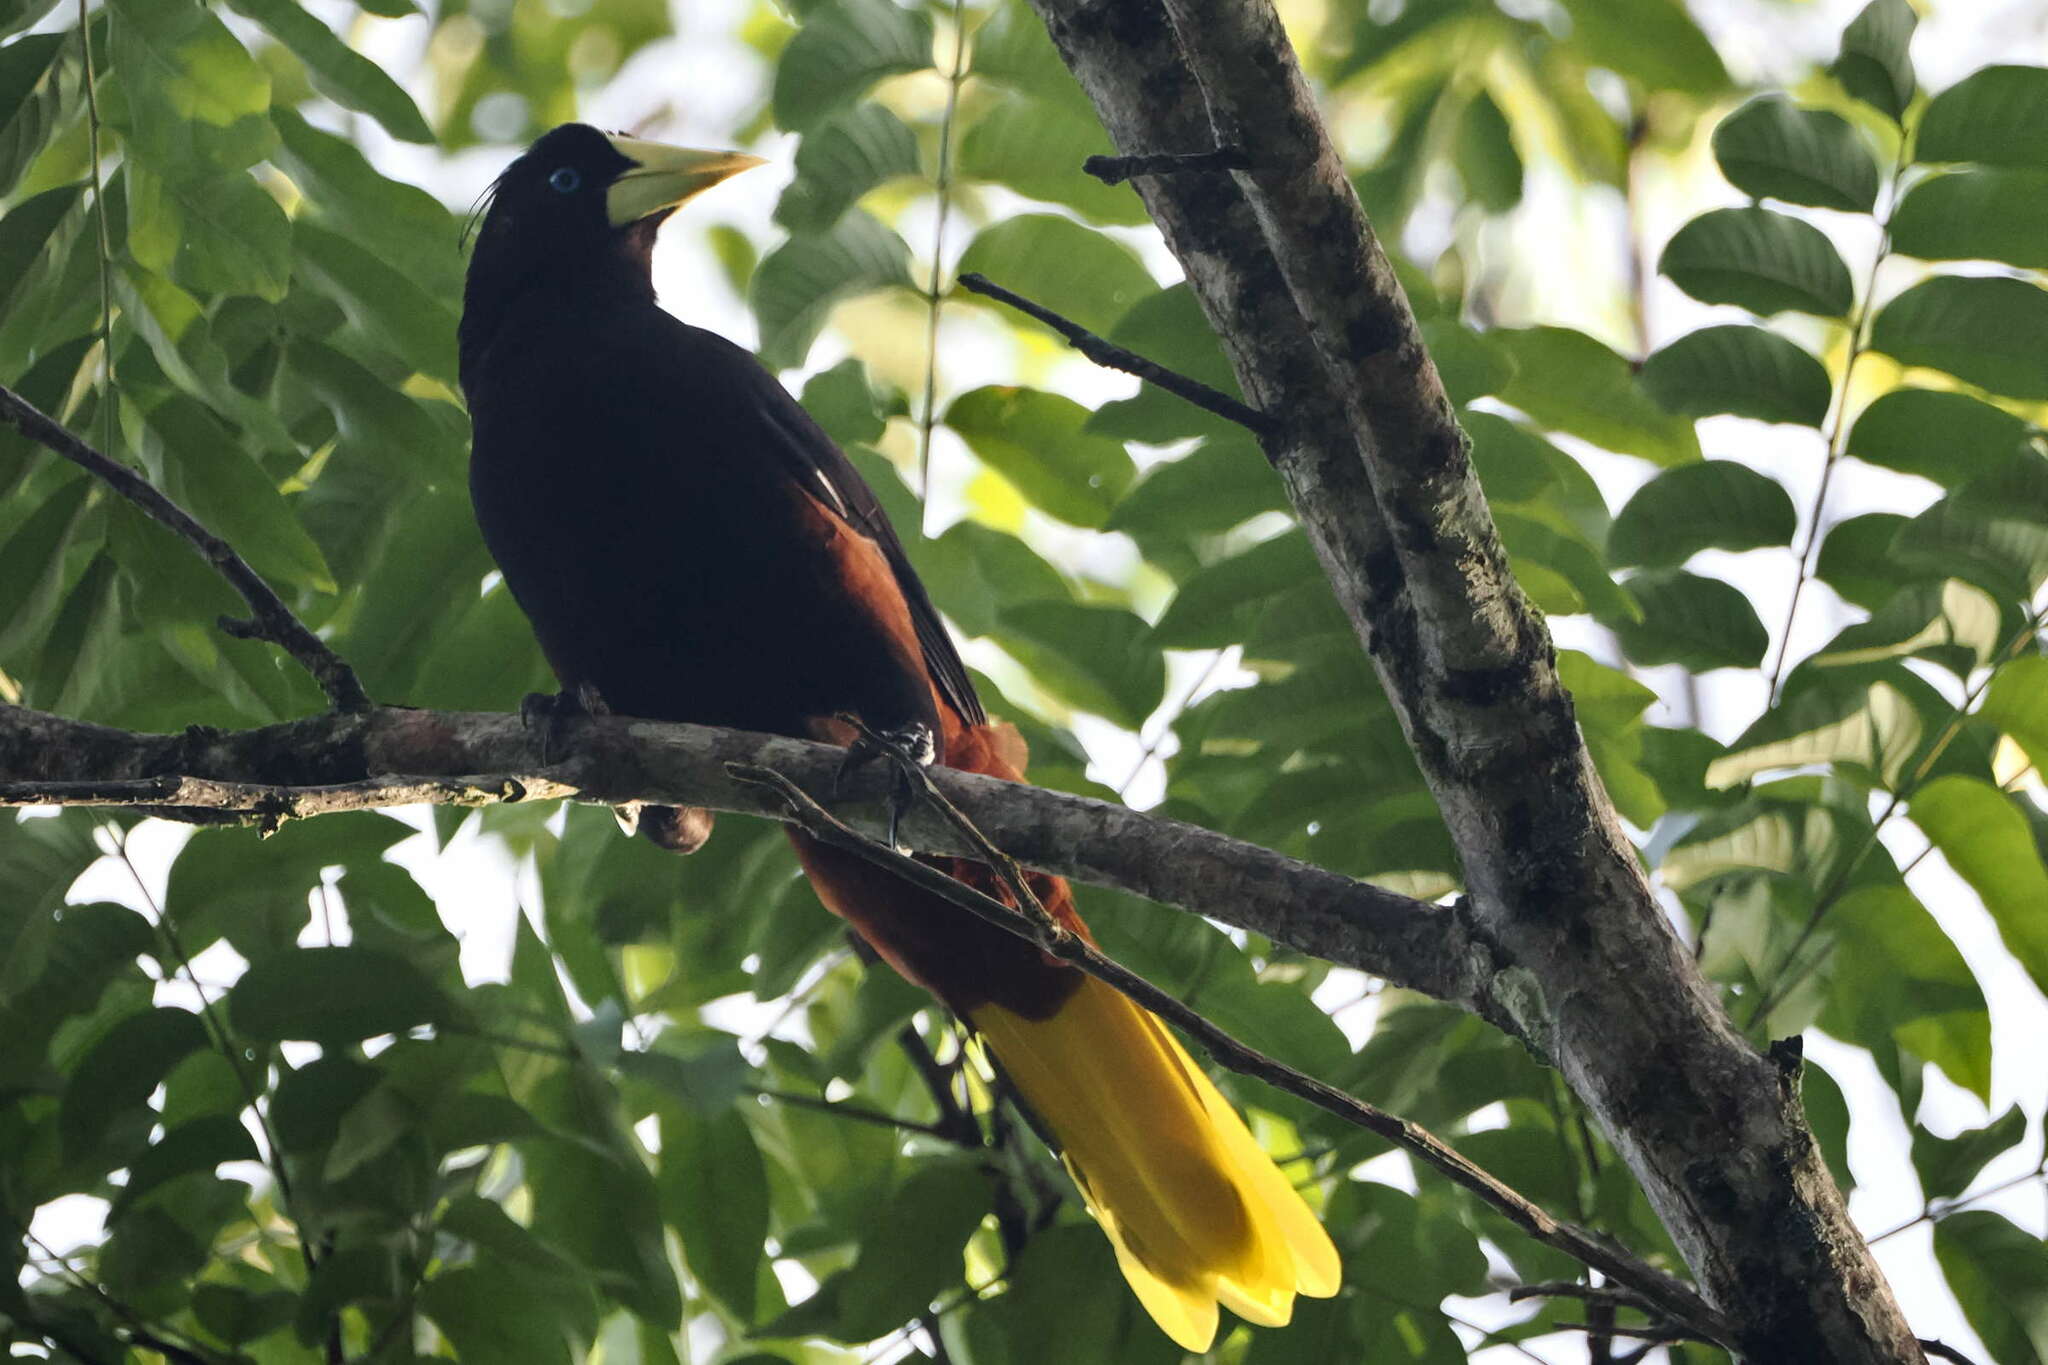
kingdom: Animalia
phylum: Chordata
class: Aves
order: Passeriformes
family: Icteridae
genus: Psarocolius
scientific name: Psarocolius decumanus
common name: Crested oropendola
